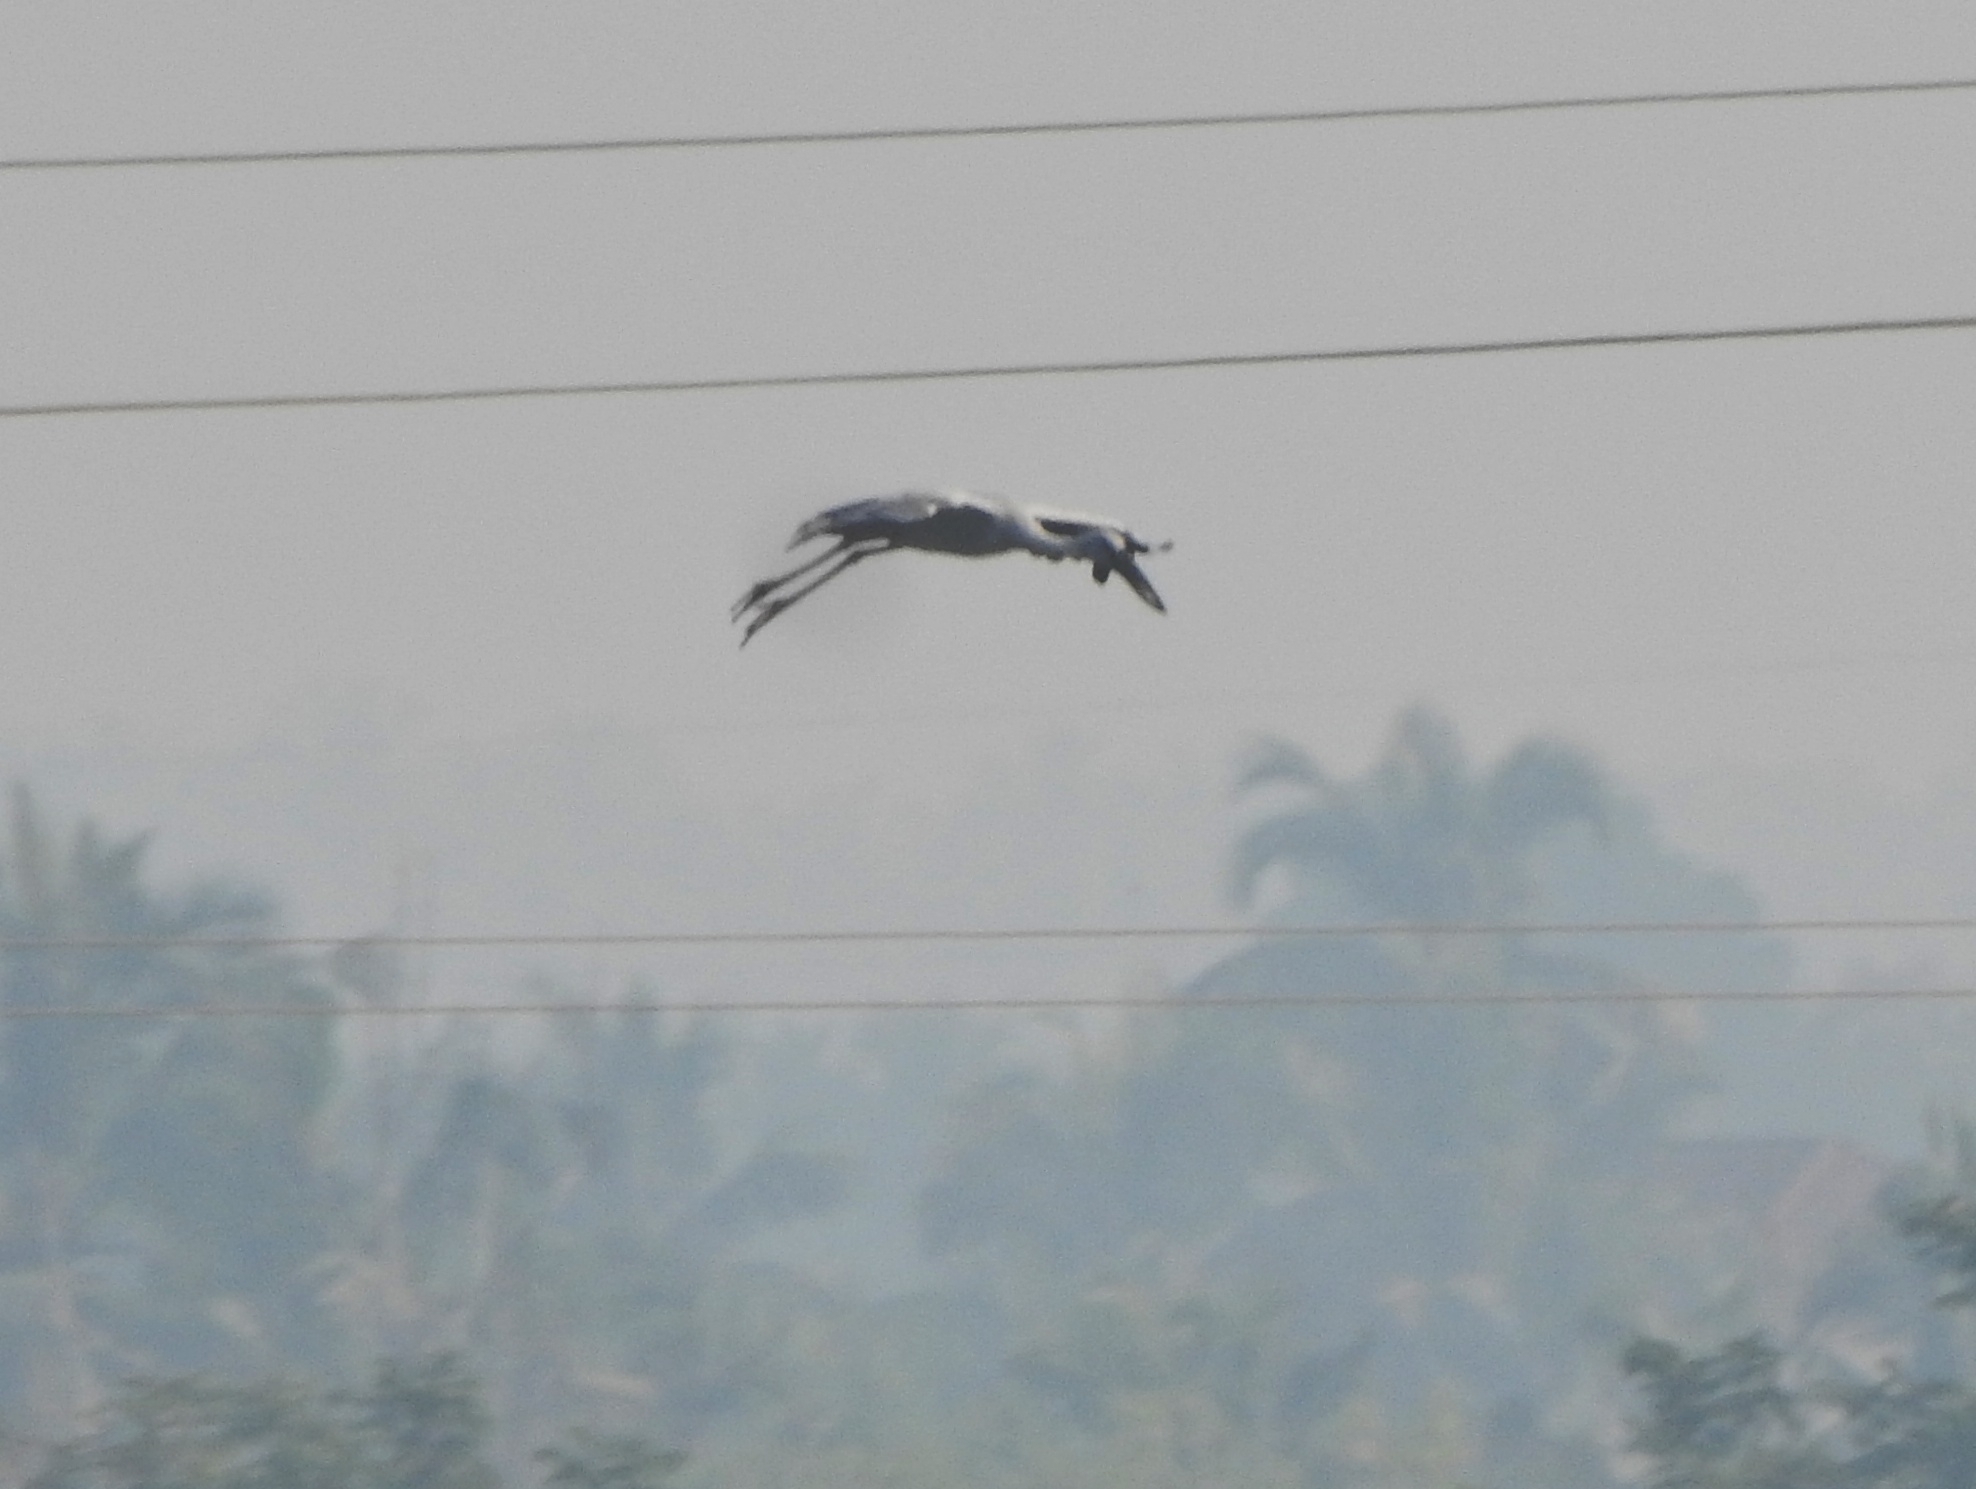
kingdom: Animalia
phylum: Chordata
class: Aves
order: Ciconiiformes
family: Ciconiidae
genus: Anastomus
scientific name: Anastomus oscitans
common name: Asian openbill
